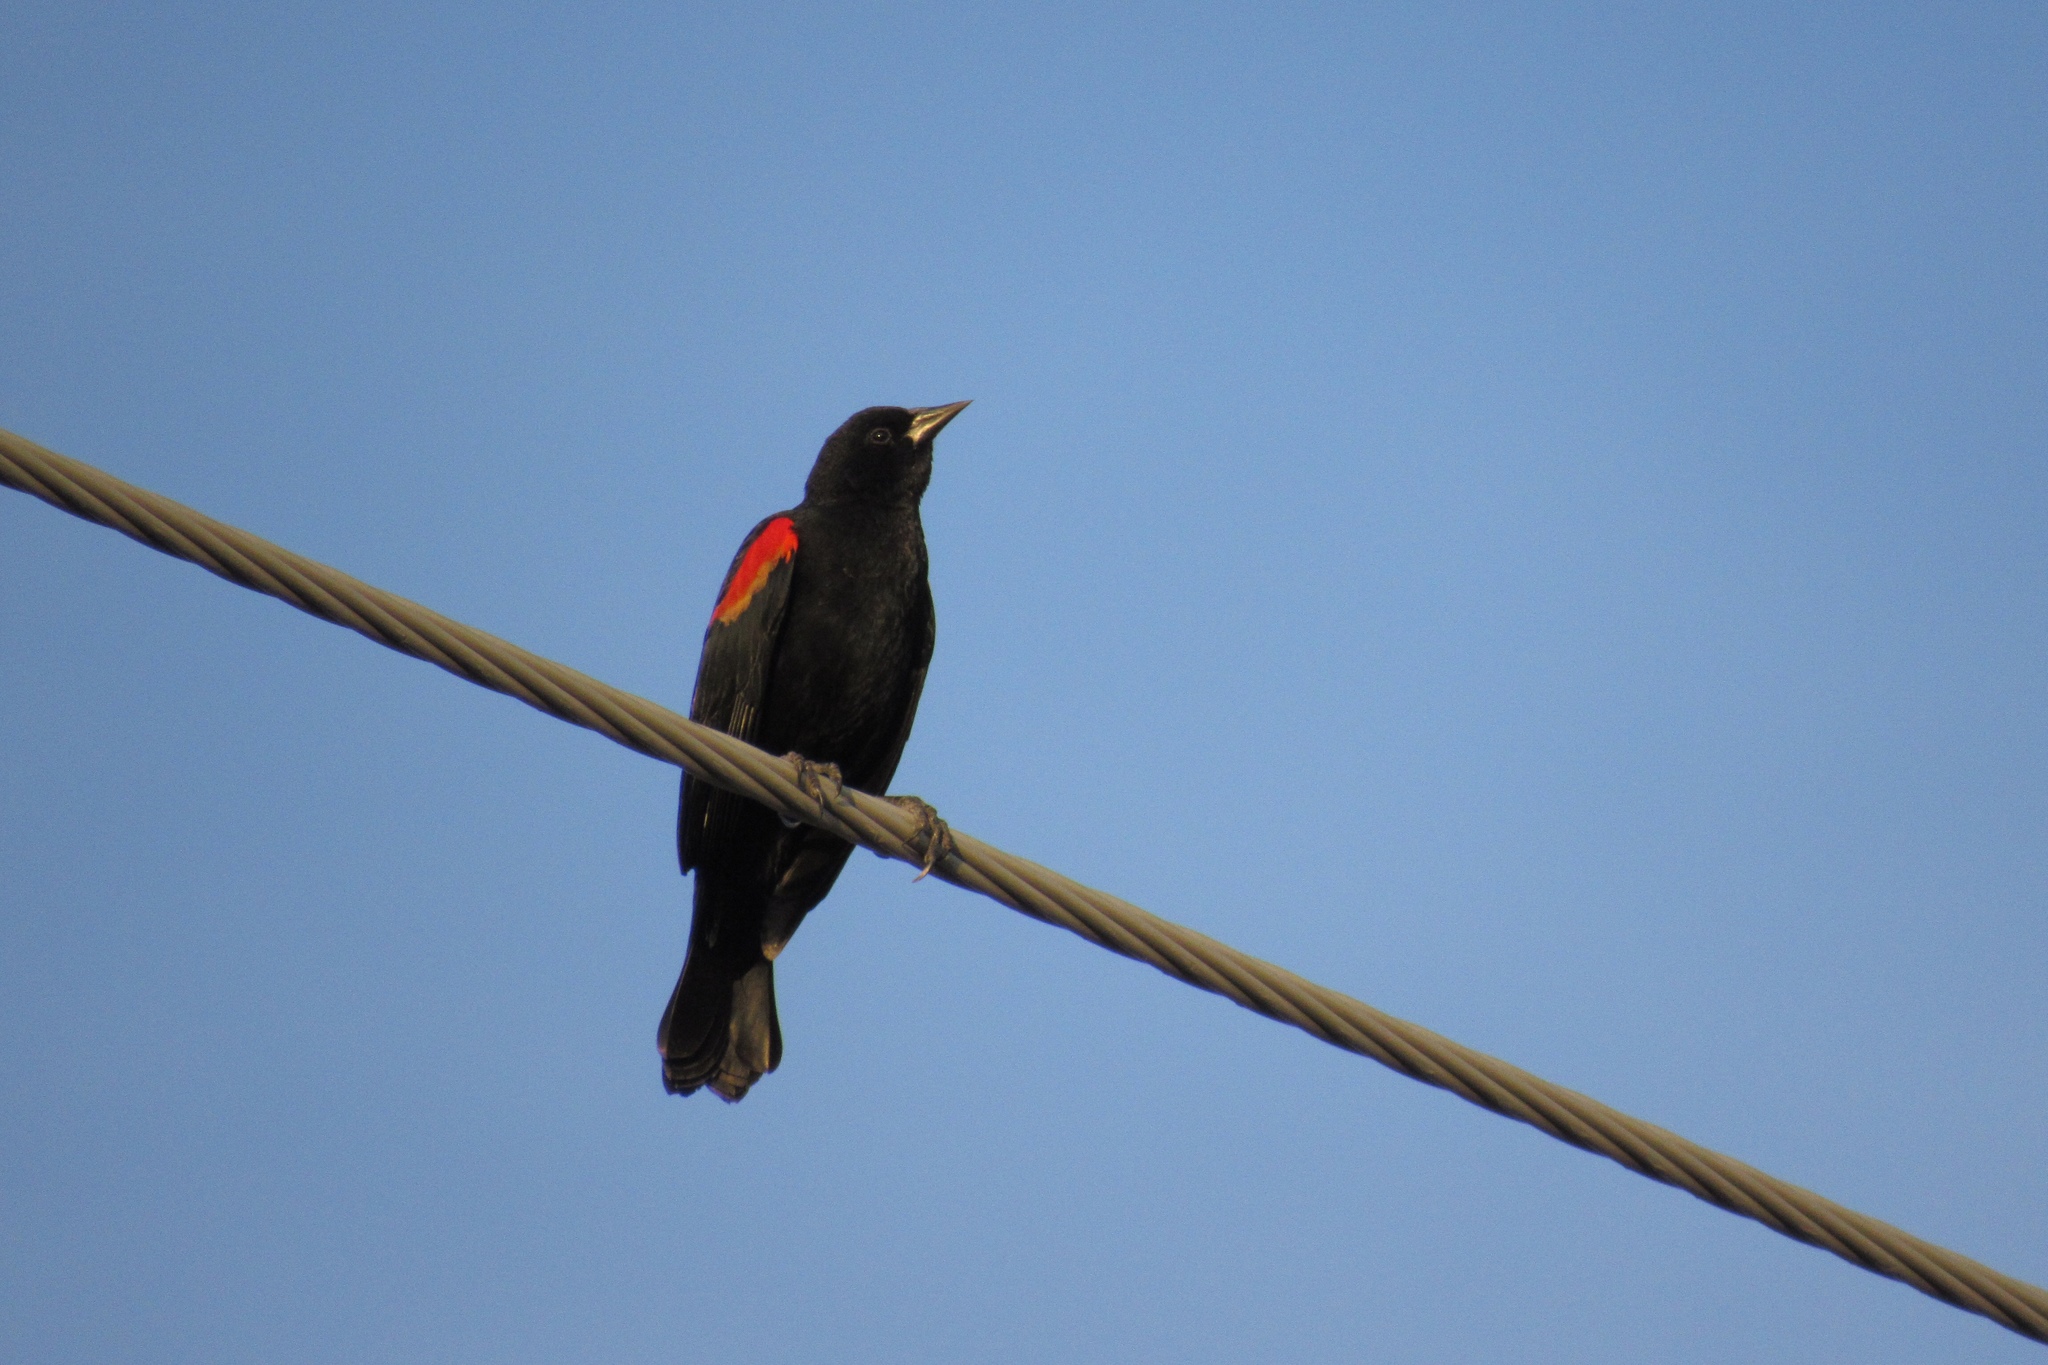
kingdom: Animalia
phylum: Chordata
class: Aves
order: Passeriformes
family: Icteridae
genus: Agelaius
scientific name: Agelaius phoeniceus
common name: Red-winged blackbird
